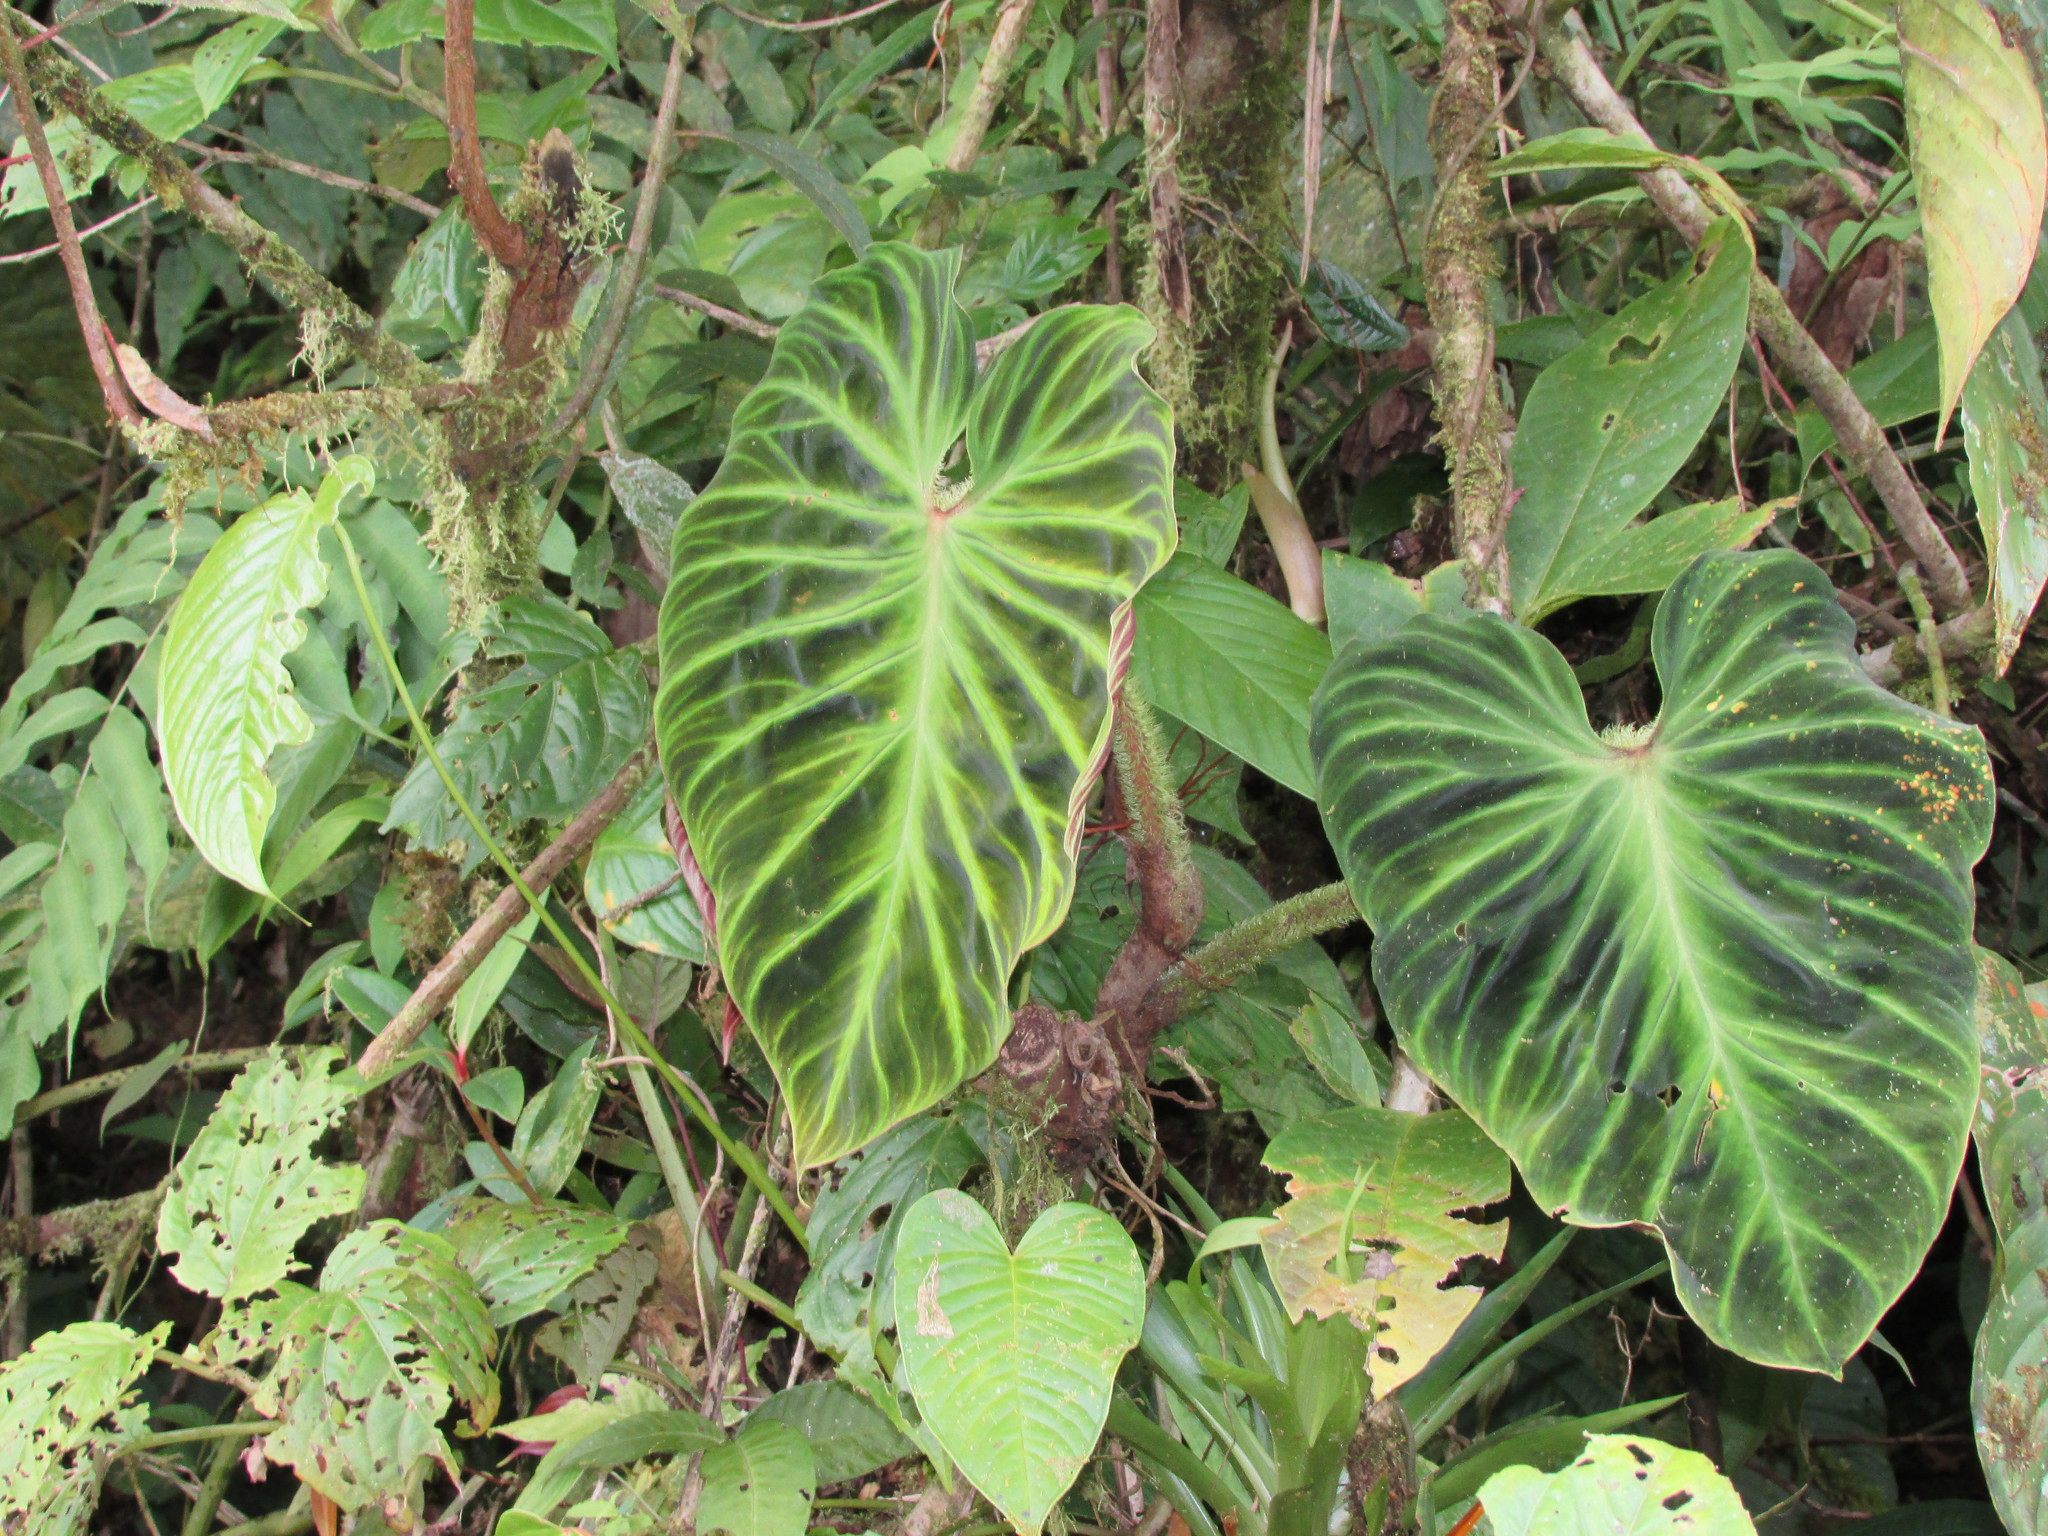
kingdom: Plantae
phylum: Tracheophyta
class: Liliopsida
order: Alismatales
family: Araceae
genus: Philodendron
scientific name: Philodendron verrucosum
